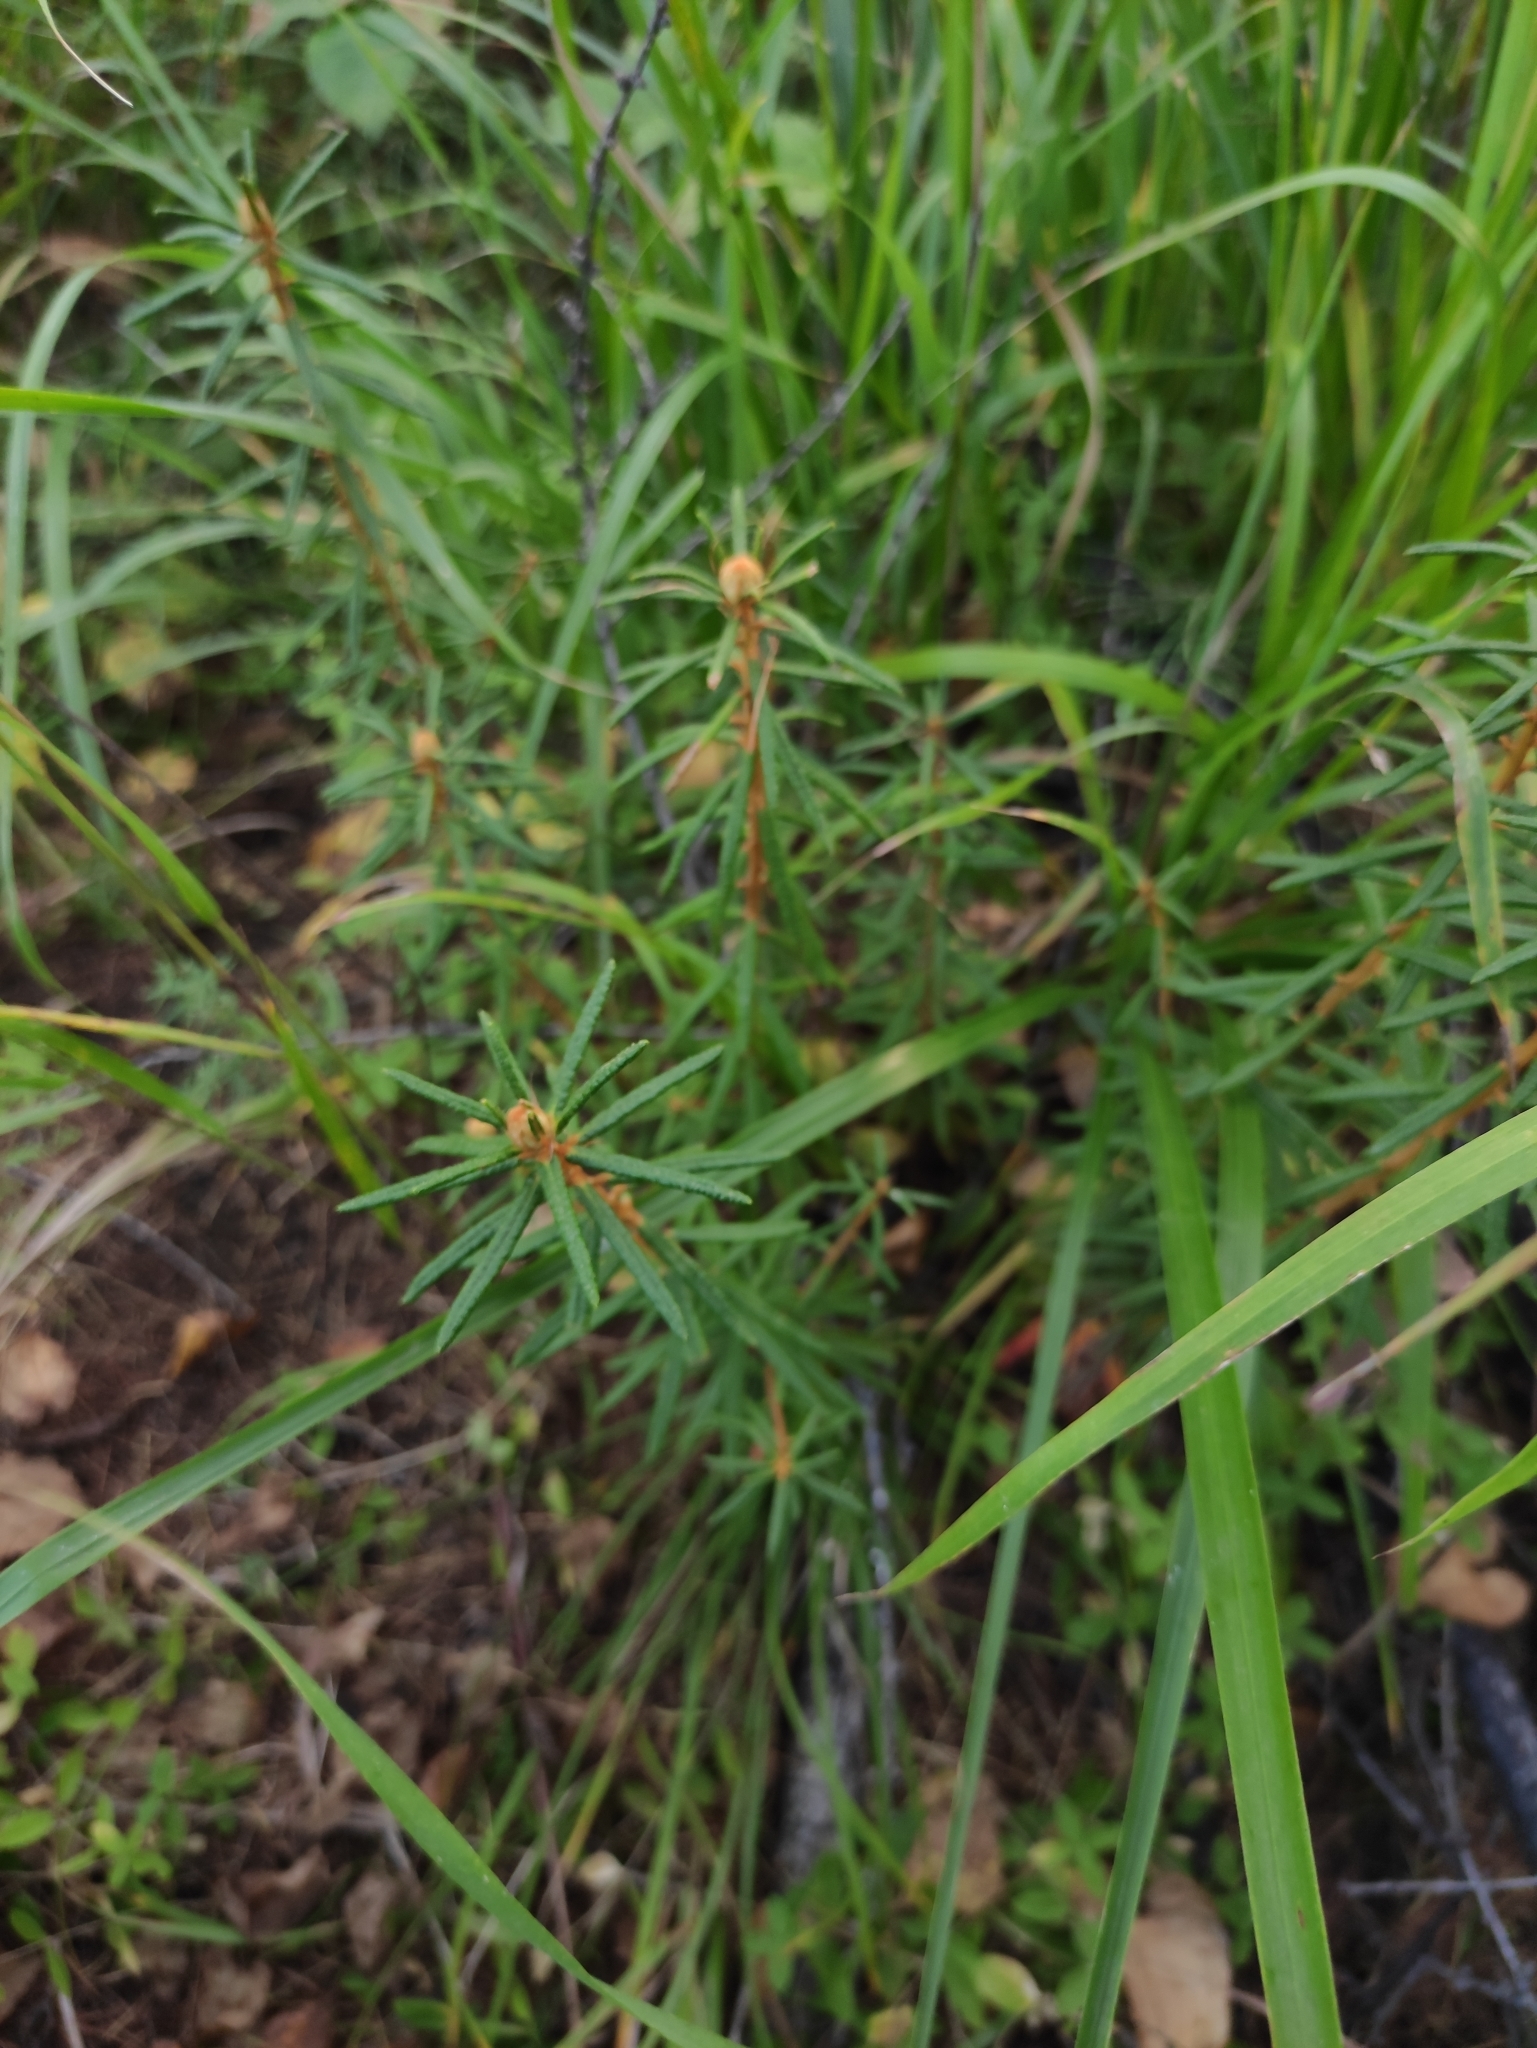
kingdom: Plantae
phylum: Tracheophyta
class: Magnoliopsida
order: Ericales
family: Ericaceae
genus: Rhododendron
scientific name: Rhododendron tomentosum
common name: Marsh labrador tea
